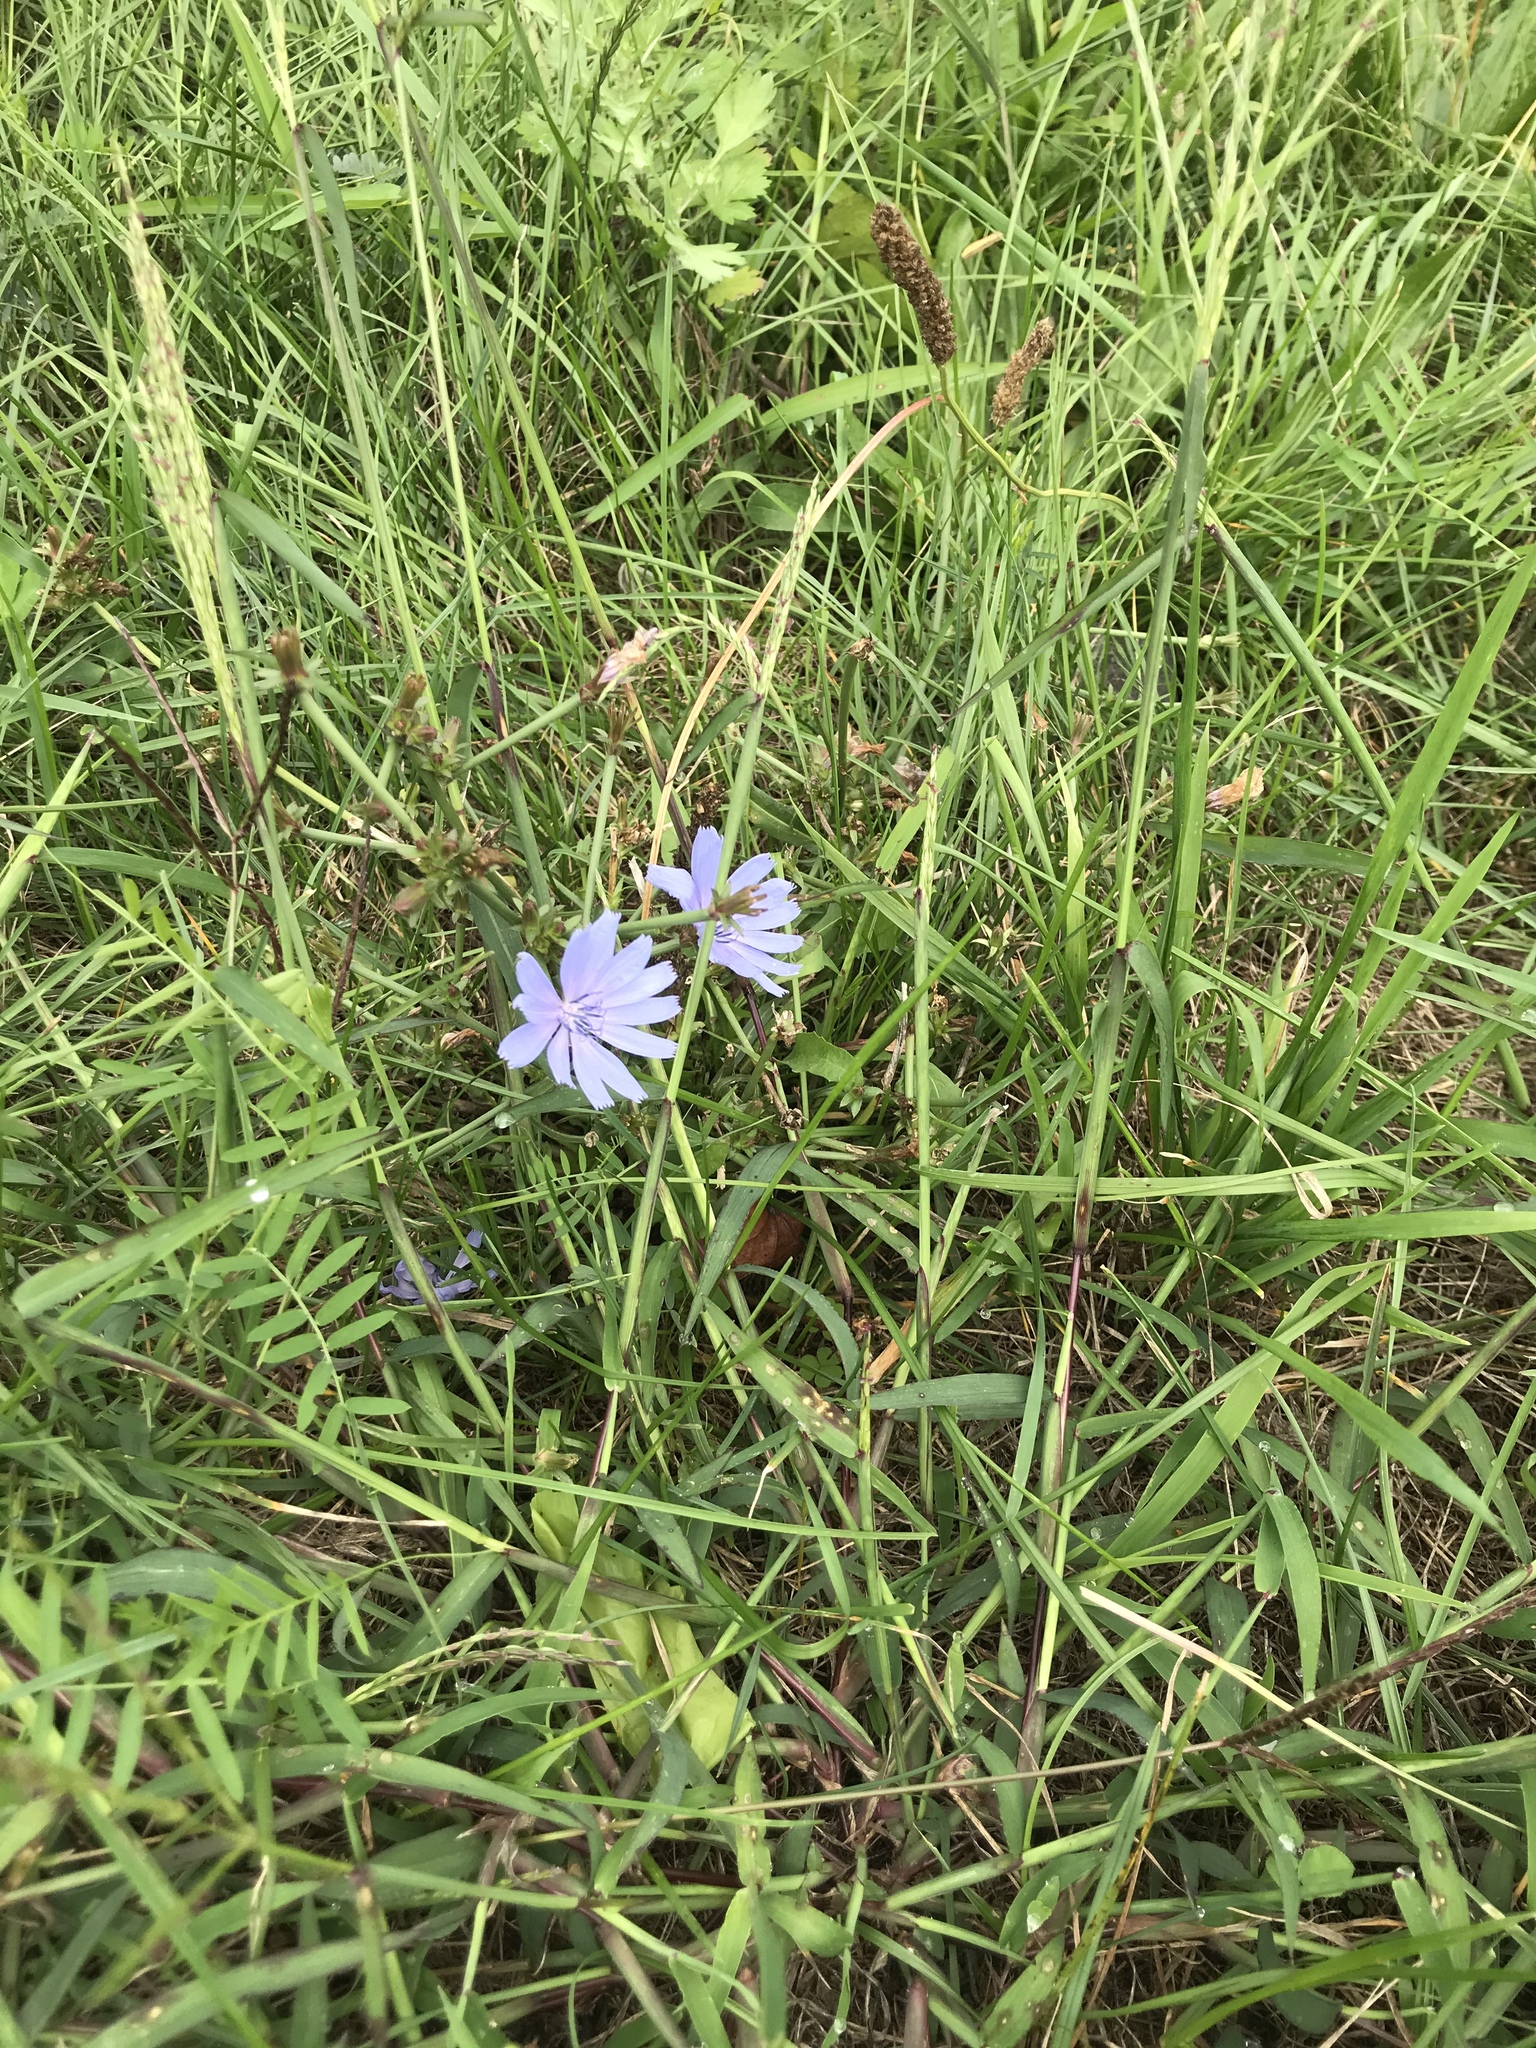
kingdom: Plantae
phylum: Tracheophyta
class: Magnoliopsida
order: Asterales
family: Asteraceae
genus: Cichorium
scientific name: Cichorium intybus
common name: Chicory
